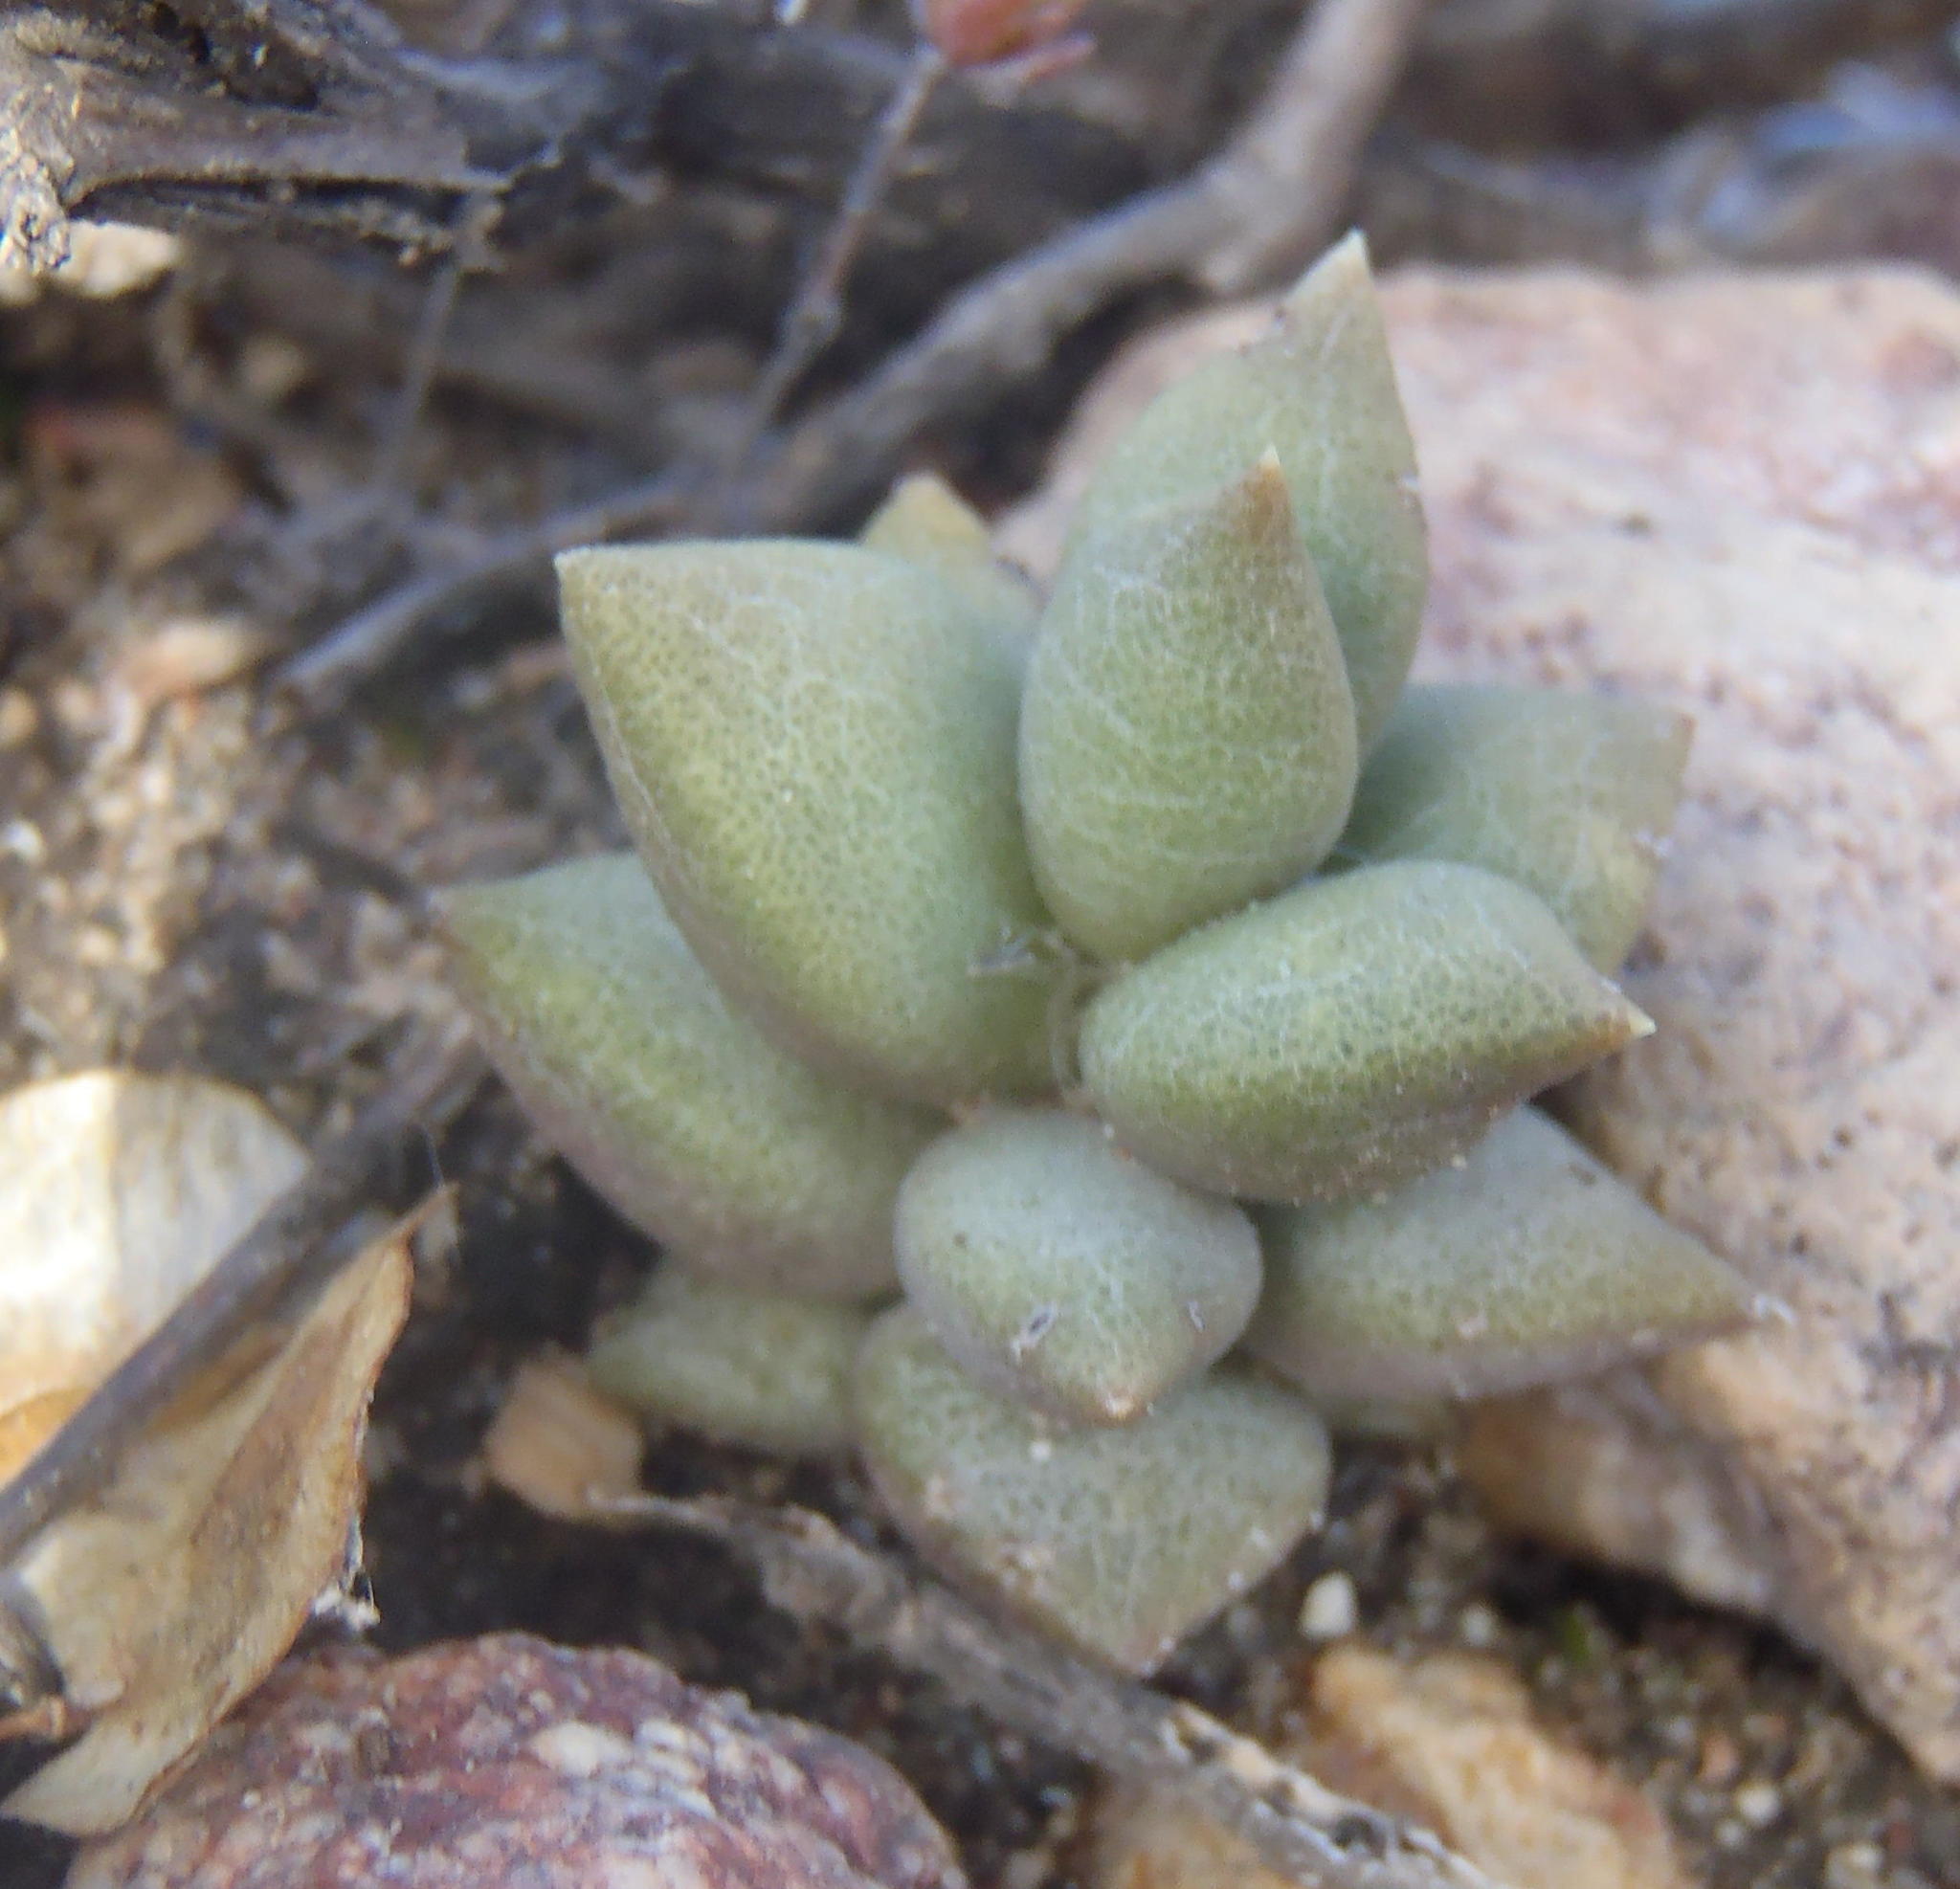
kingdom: Plantae
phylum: Tracheophyta
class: Magnoliopsida
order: Caryophyllales
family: Anacampserotaceae
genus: Anacampseros
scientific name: Anacampseros telephiastrum
